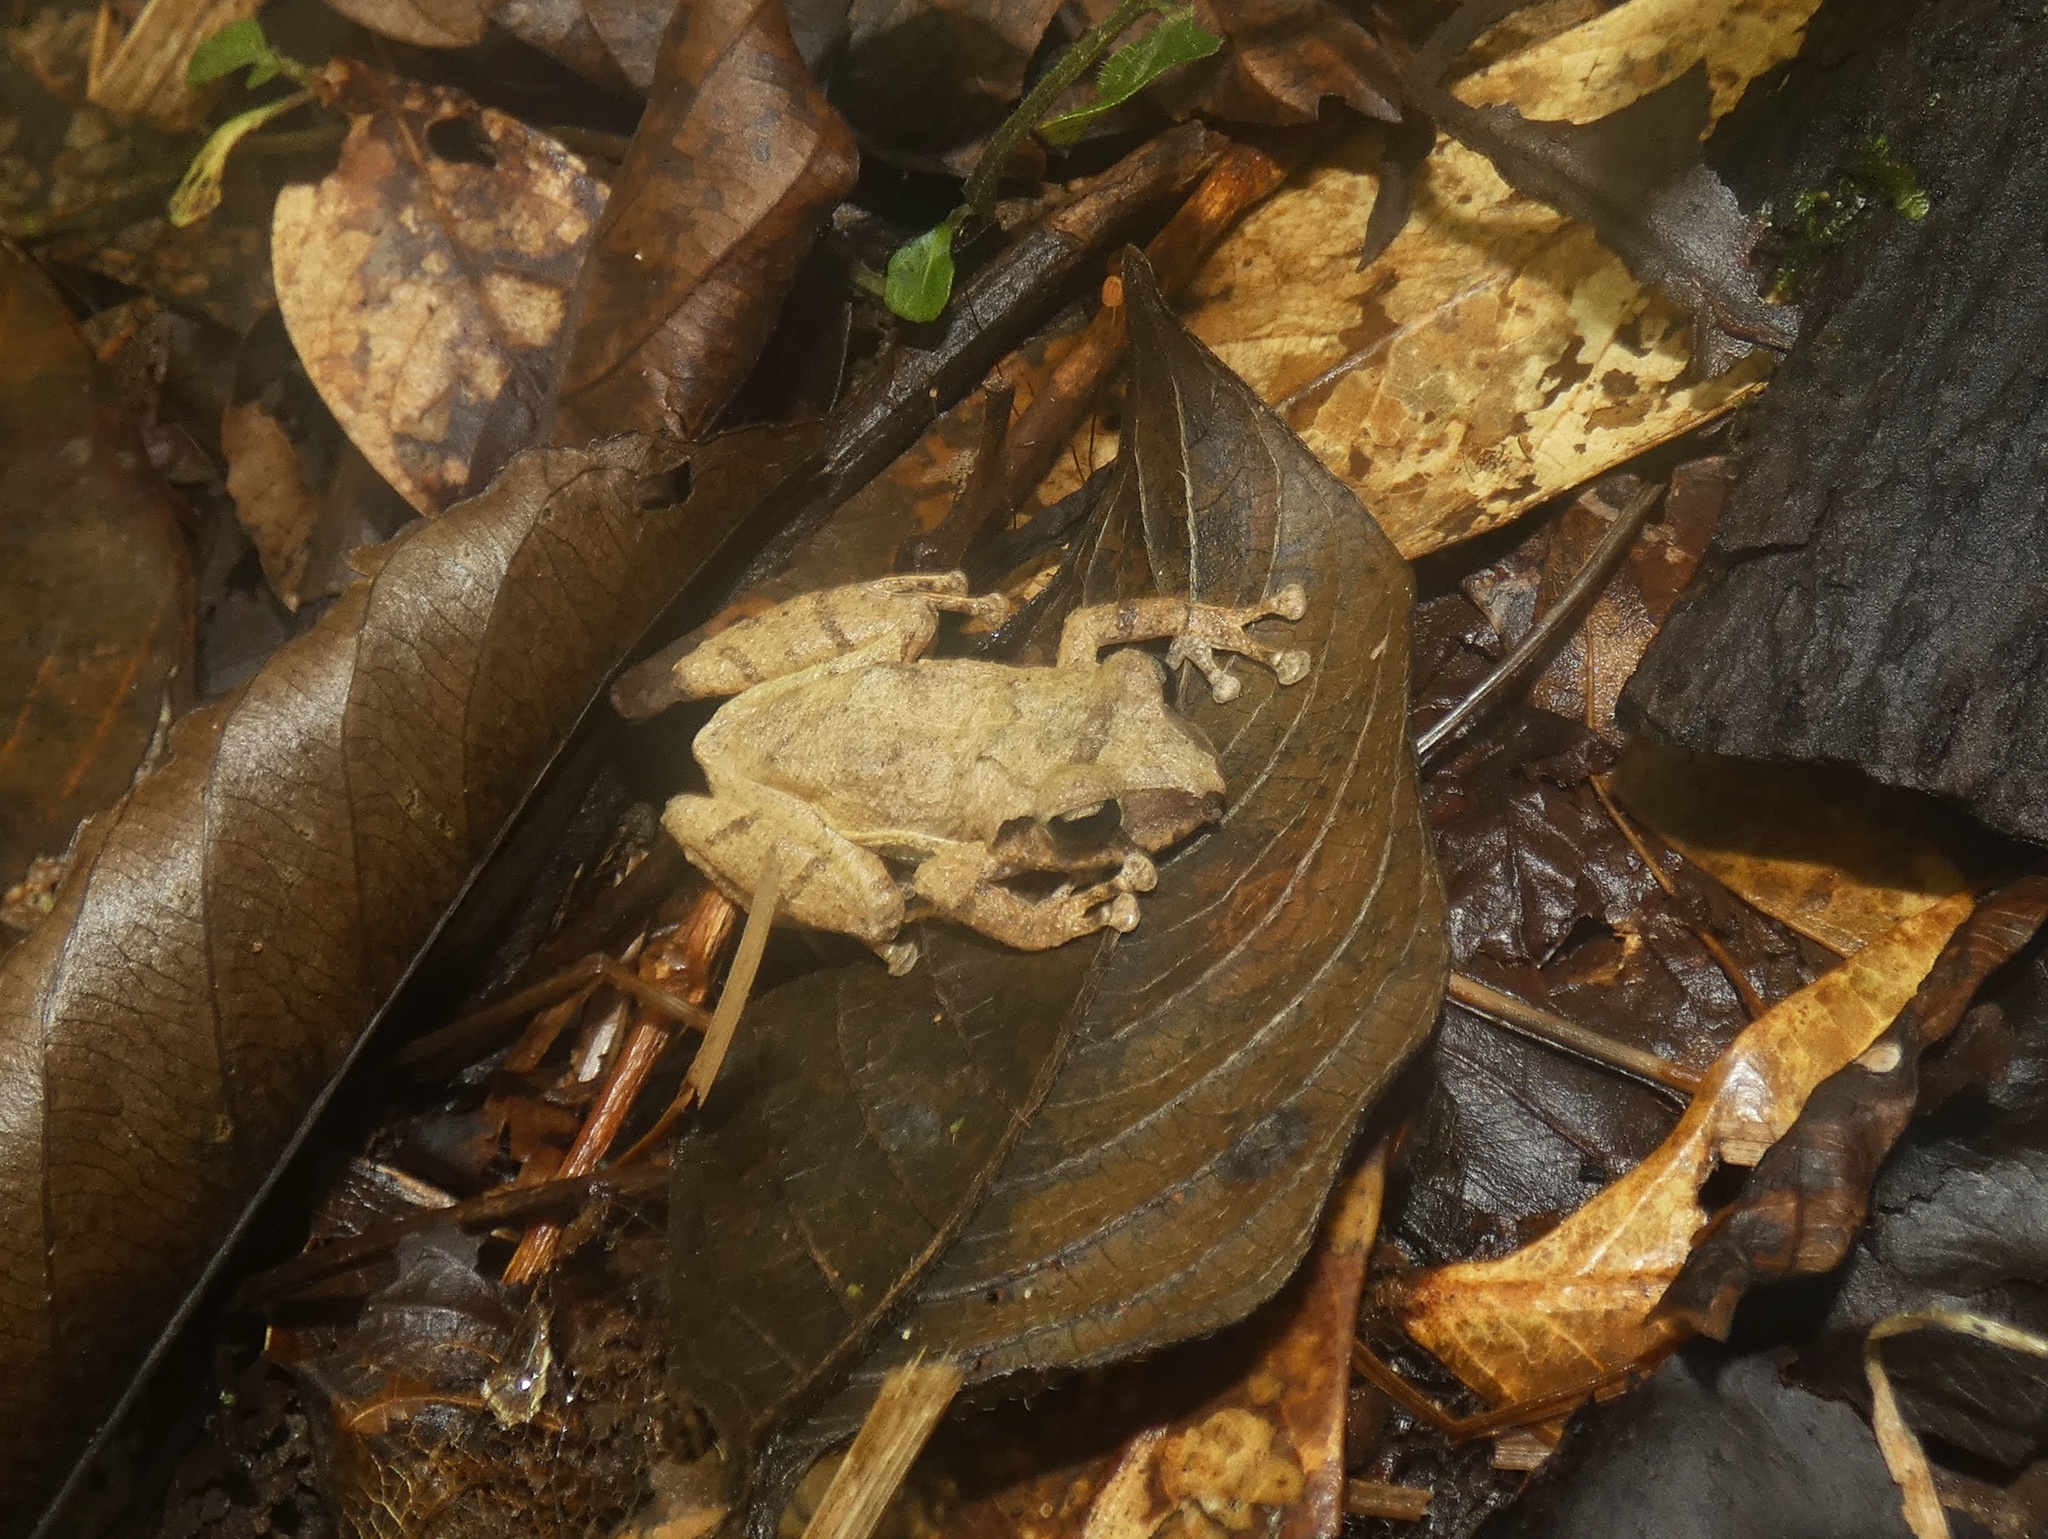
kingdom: Animalia
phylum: Chordata
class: Amphibia
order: Anura
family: Craugastoridae
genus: Pristimantis
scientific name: Pristimantis taeniatus
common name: Banded robber frog
